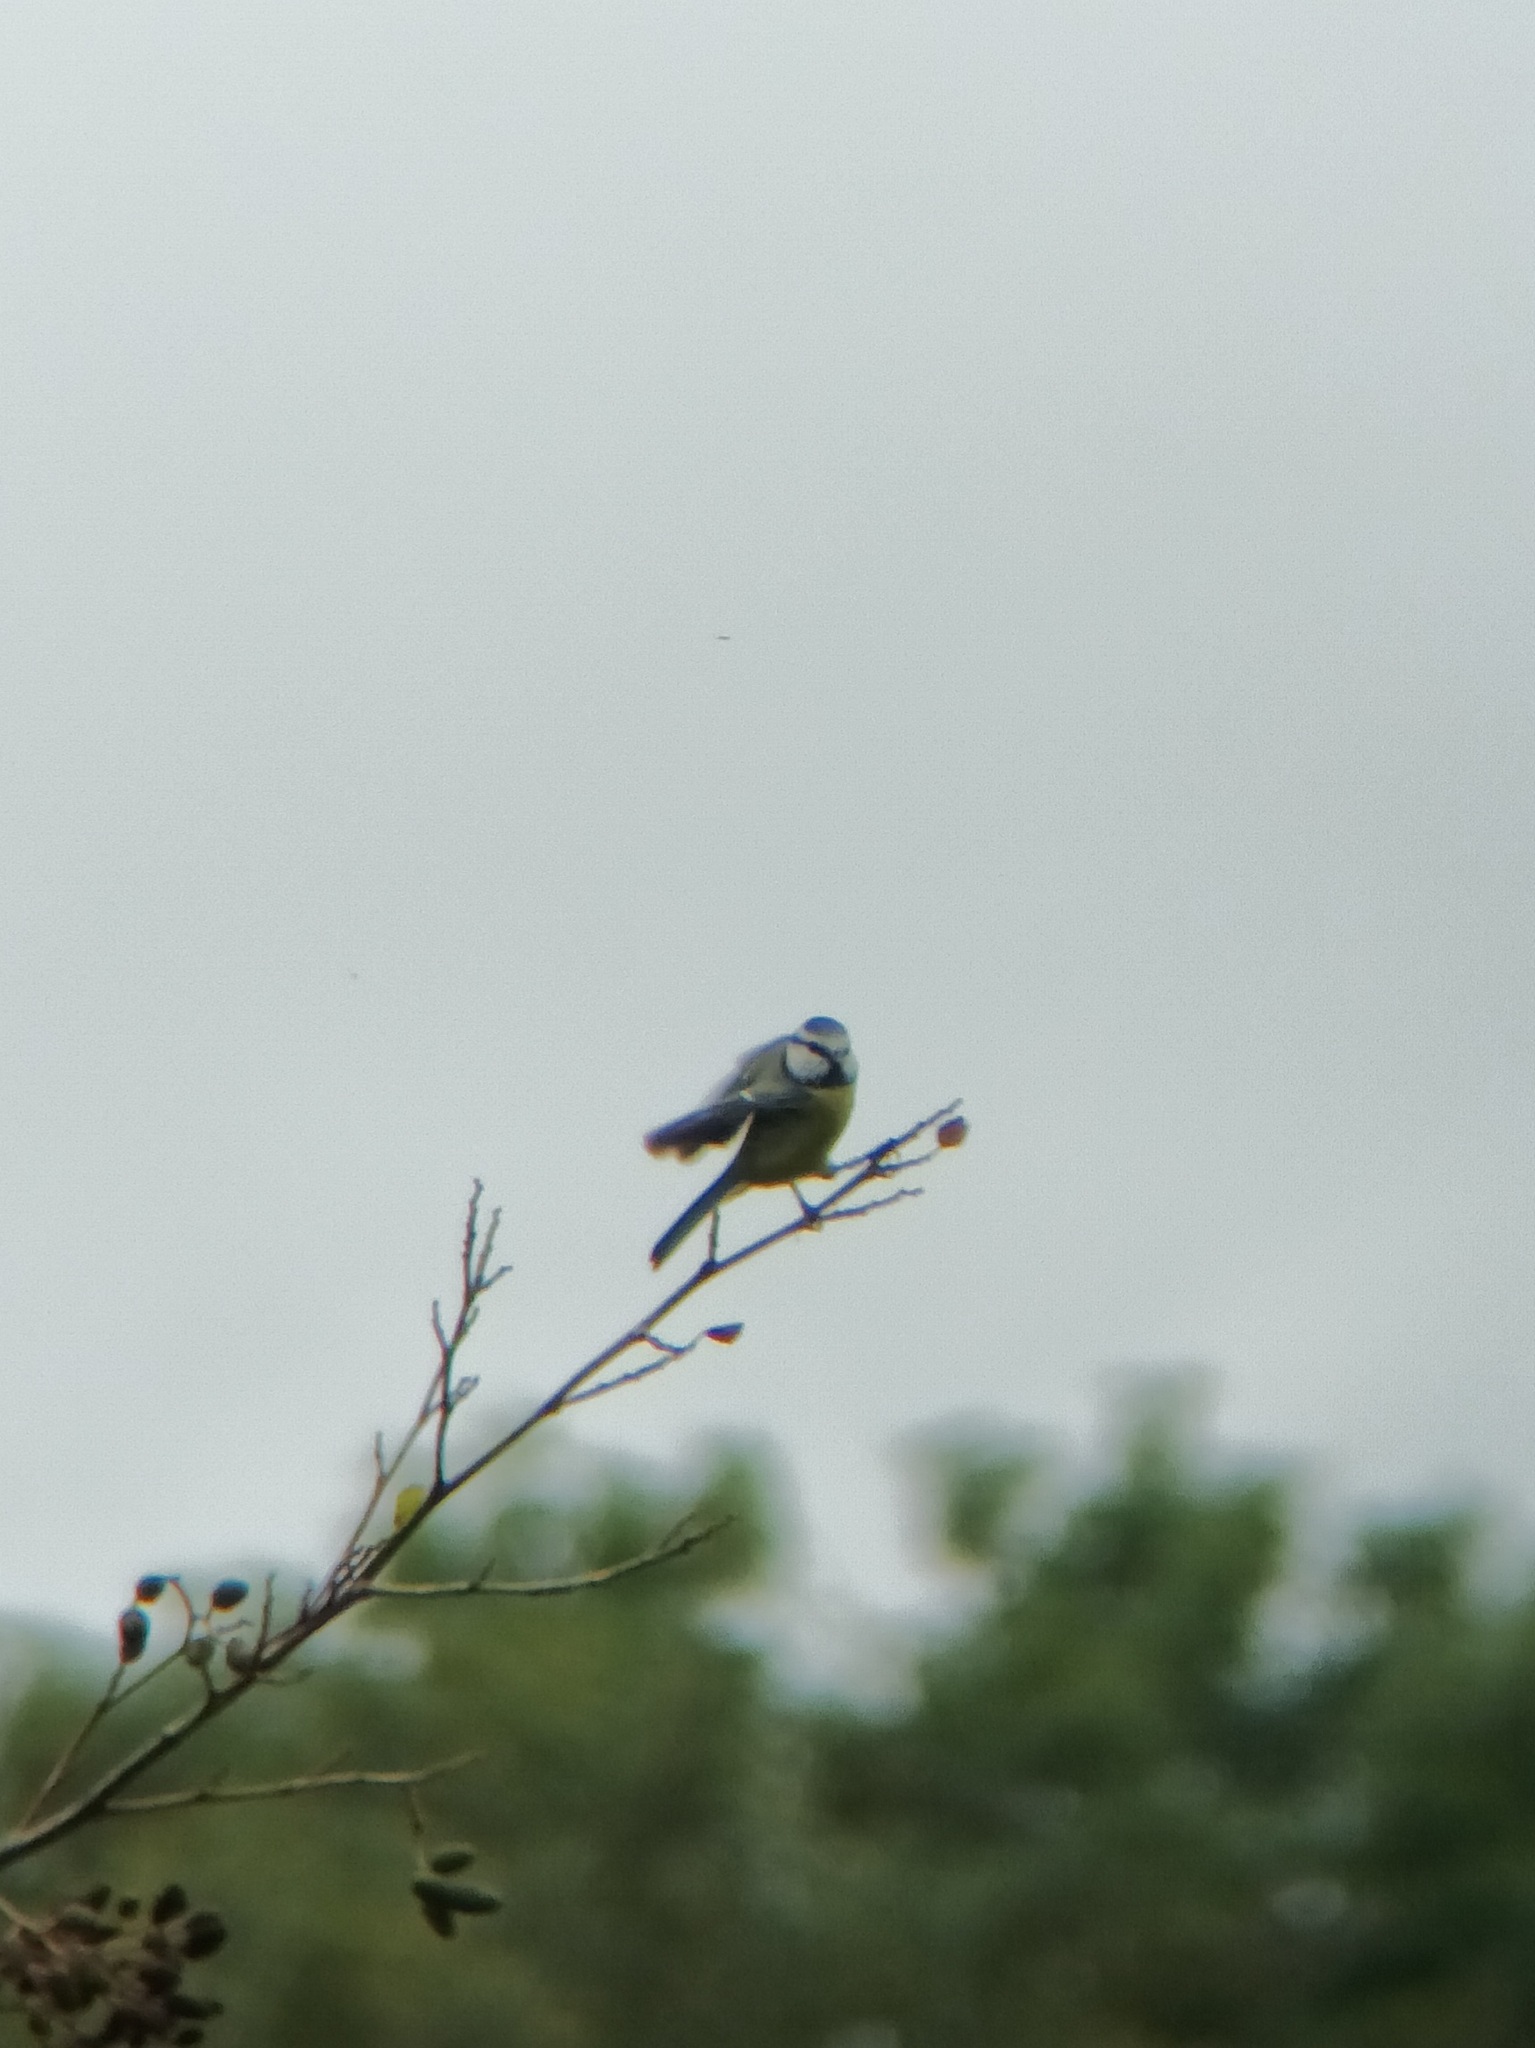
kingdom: Animalia
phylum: Chordata
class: Aves
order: Passeriformes
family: Paridae
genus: Cyanistes
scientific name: Cyanistes caeruleus
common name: Eurasian blue tit
